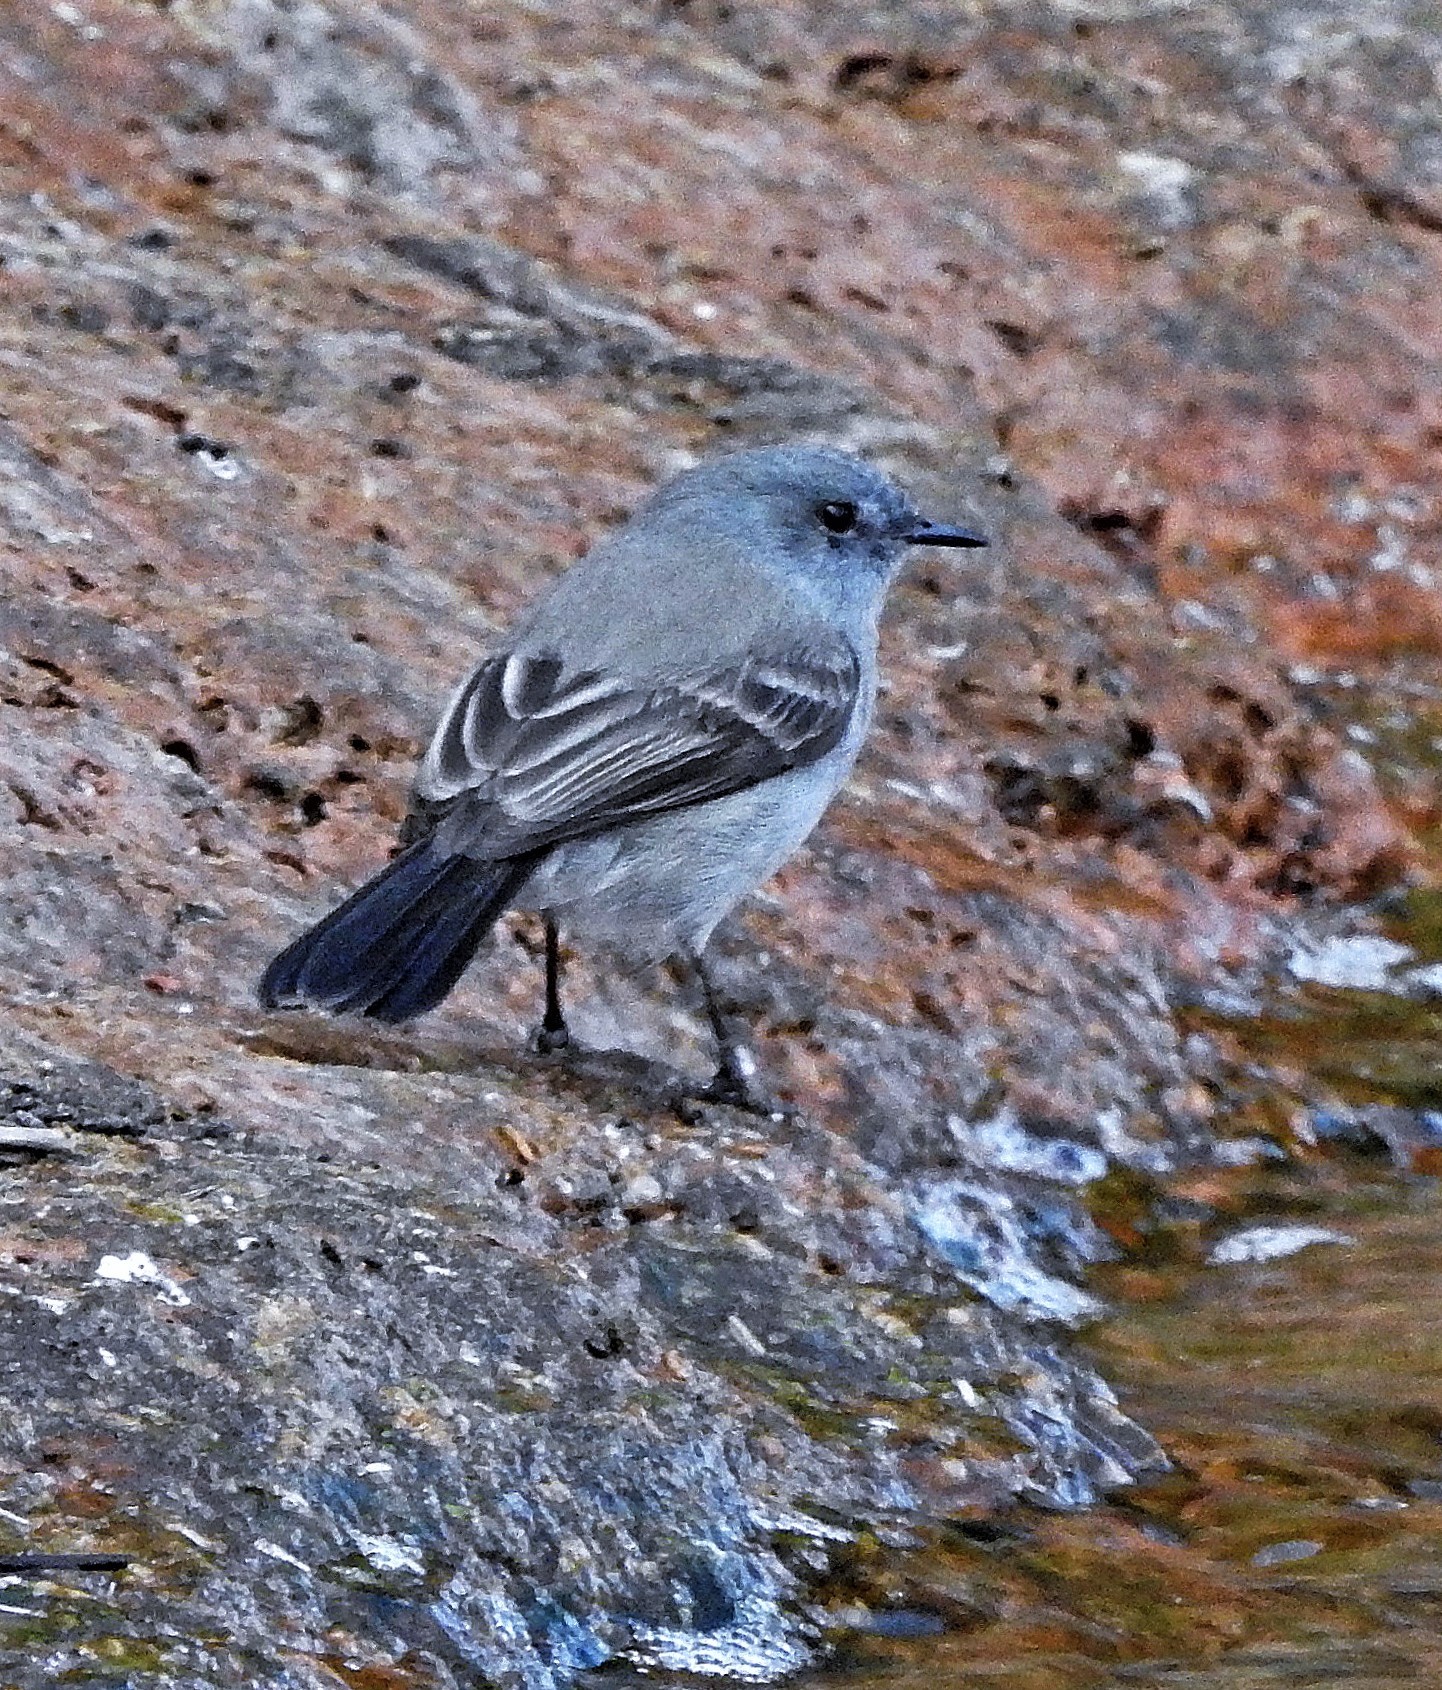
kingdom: Animalia
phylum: Chordata
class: Aves
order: Passeriformes
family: Tyrannidae
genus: Serpophaga
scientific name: Serpophaga nigricans
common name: Sooty tyrannulet
